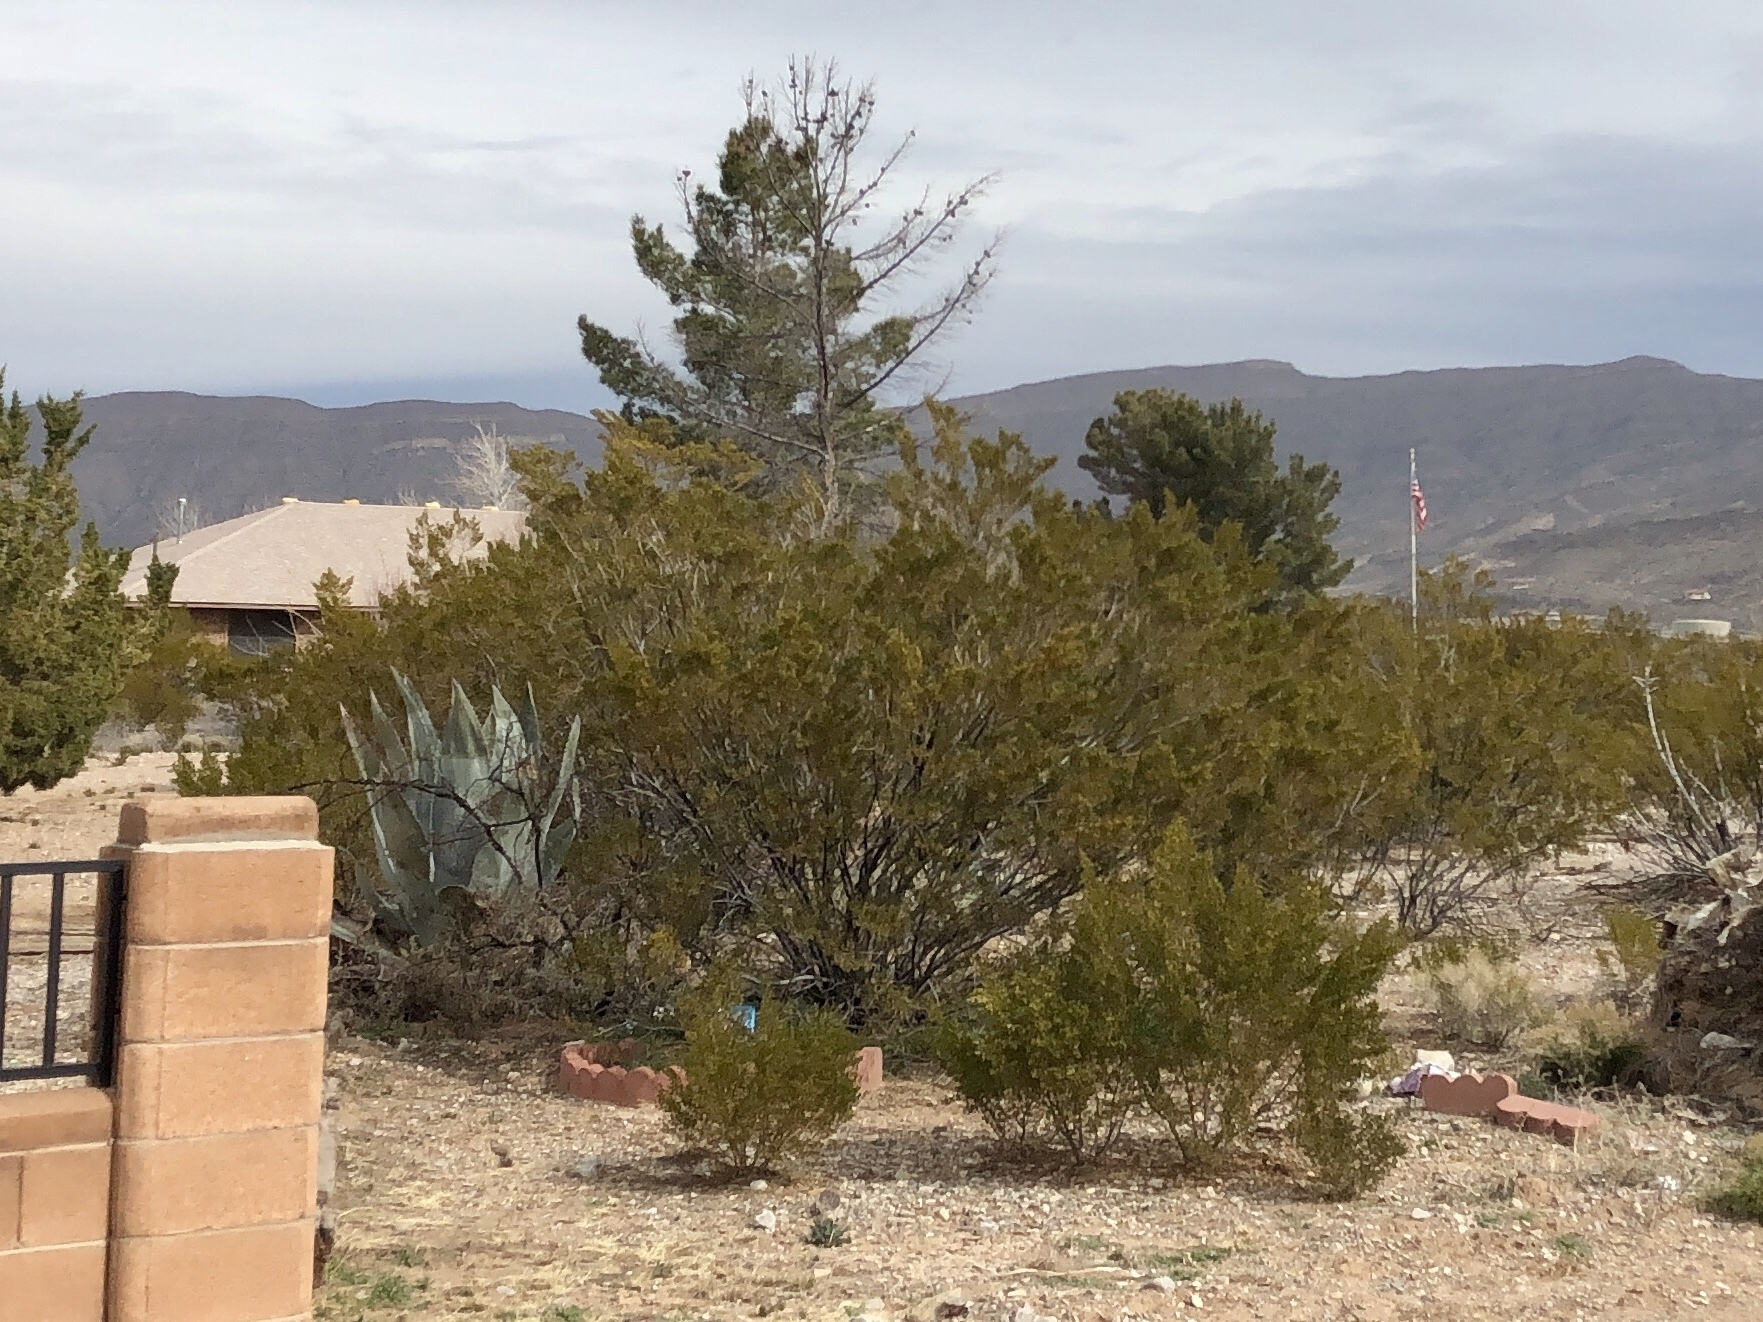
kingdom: Plantae
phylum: Tracheophyta
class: Magnoliopsida
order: Zygophyllales
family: Zygophyllaceae
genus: Larrea
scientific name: Larrea tridentata
